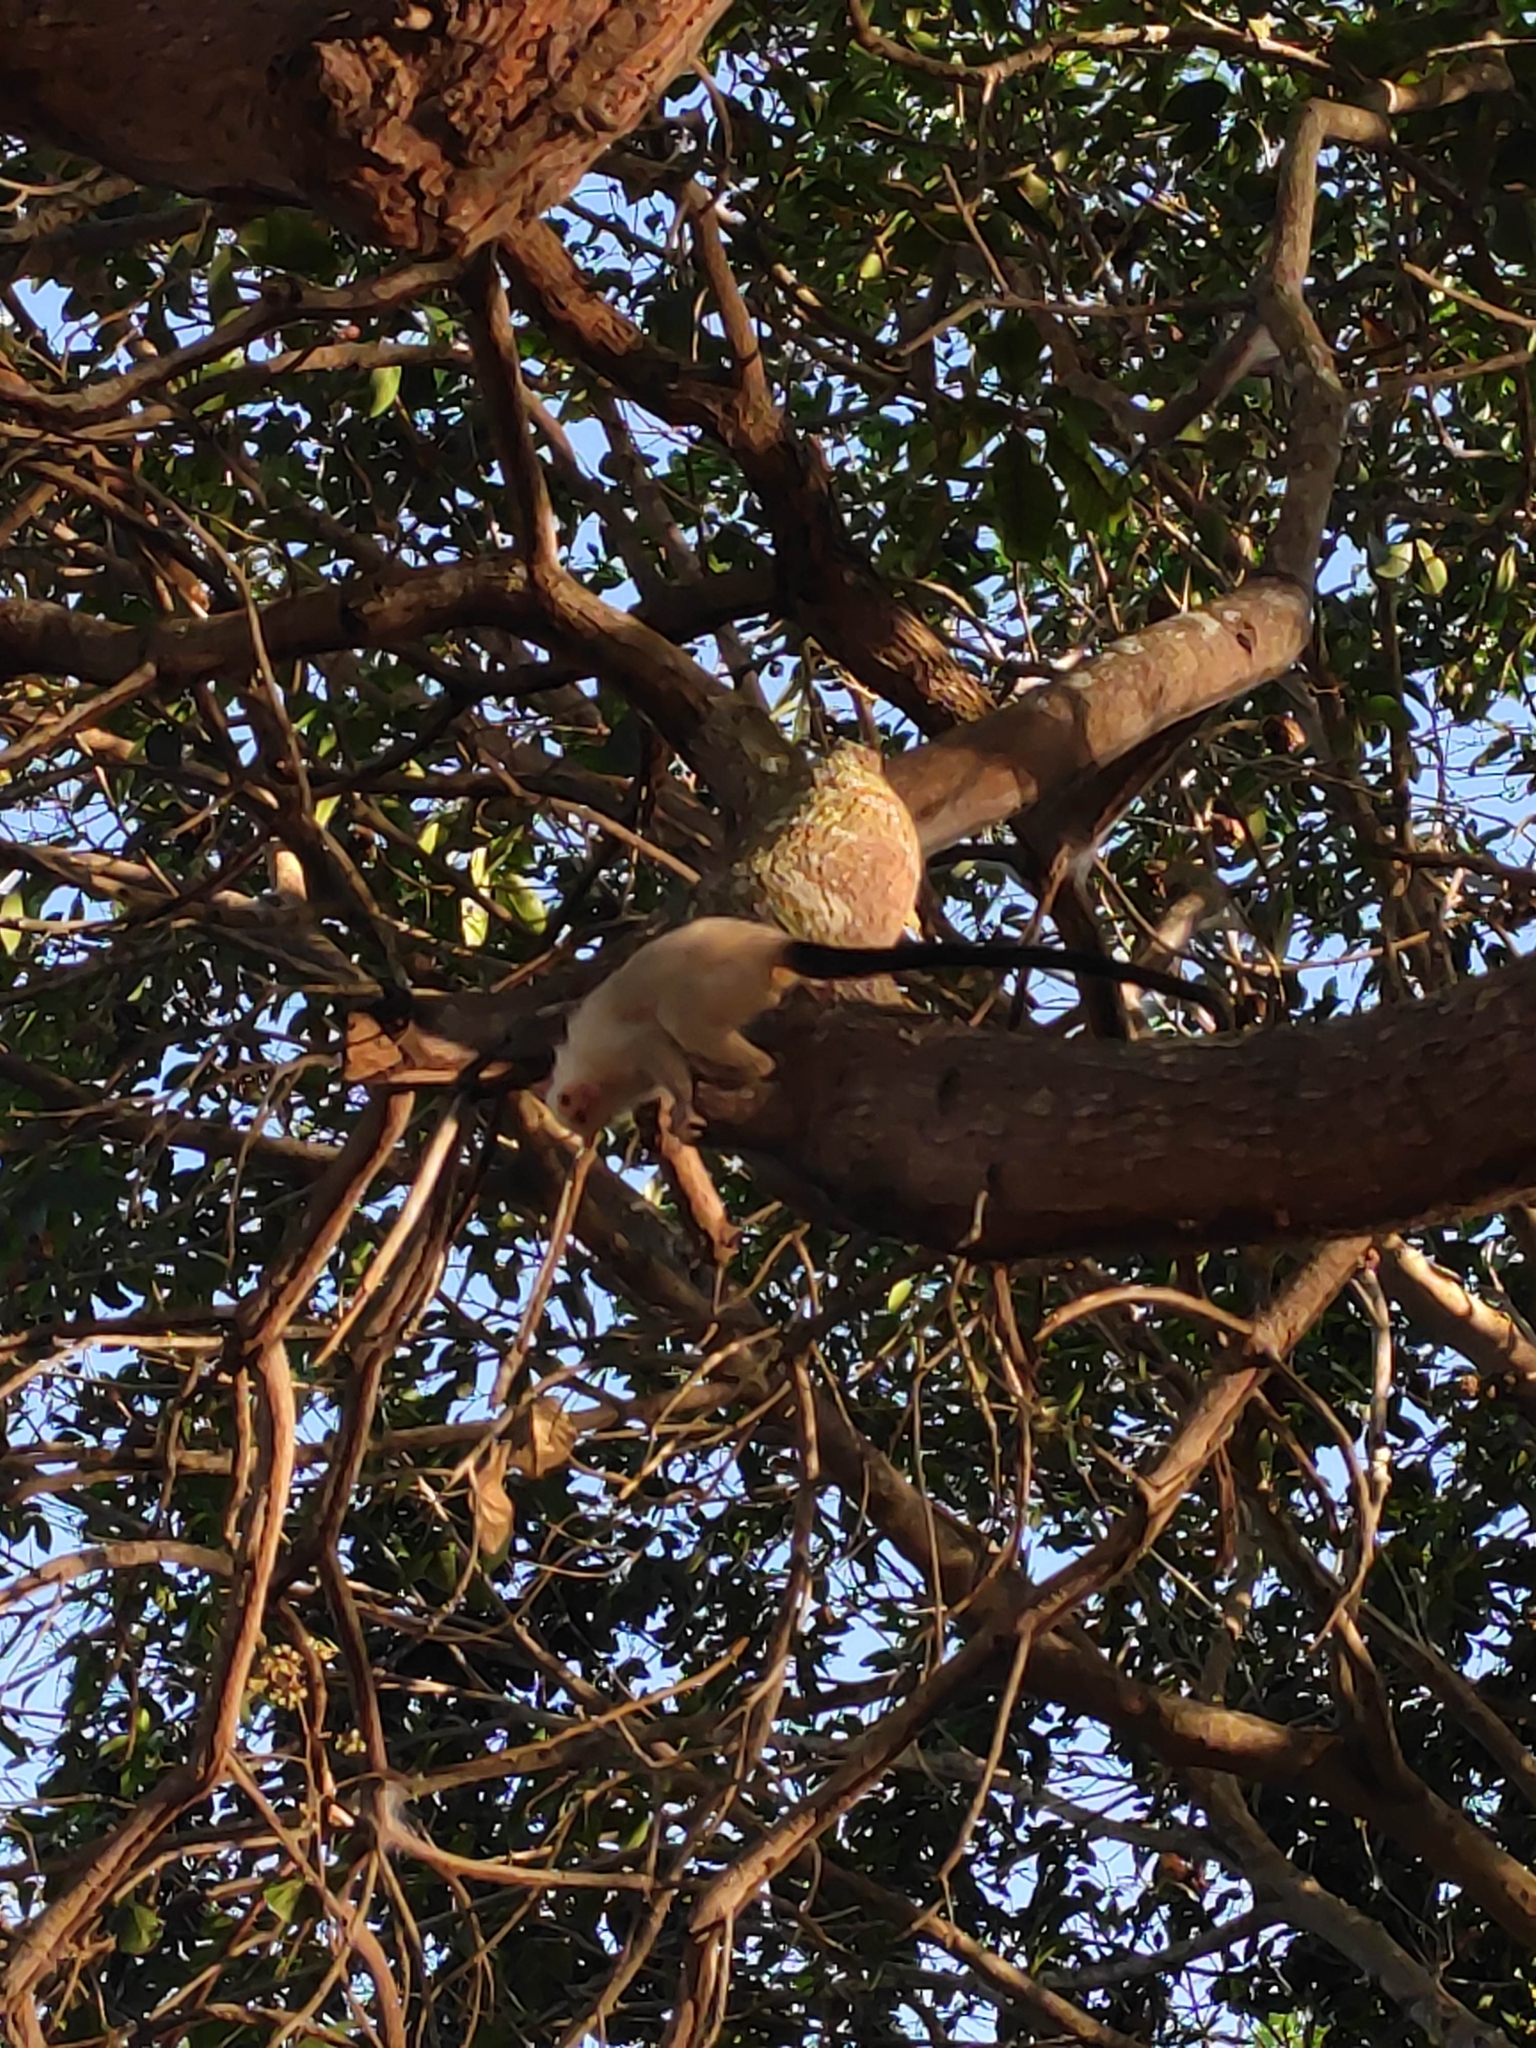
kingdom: Animalia
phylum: Chordata
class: Mammalia
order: Primates
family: Callitrichidae
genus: Mico
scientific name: Mico argentatus
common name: Silvery marmoset
